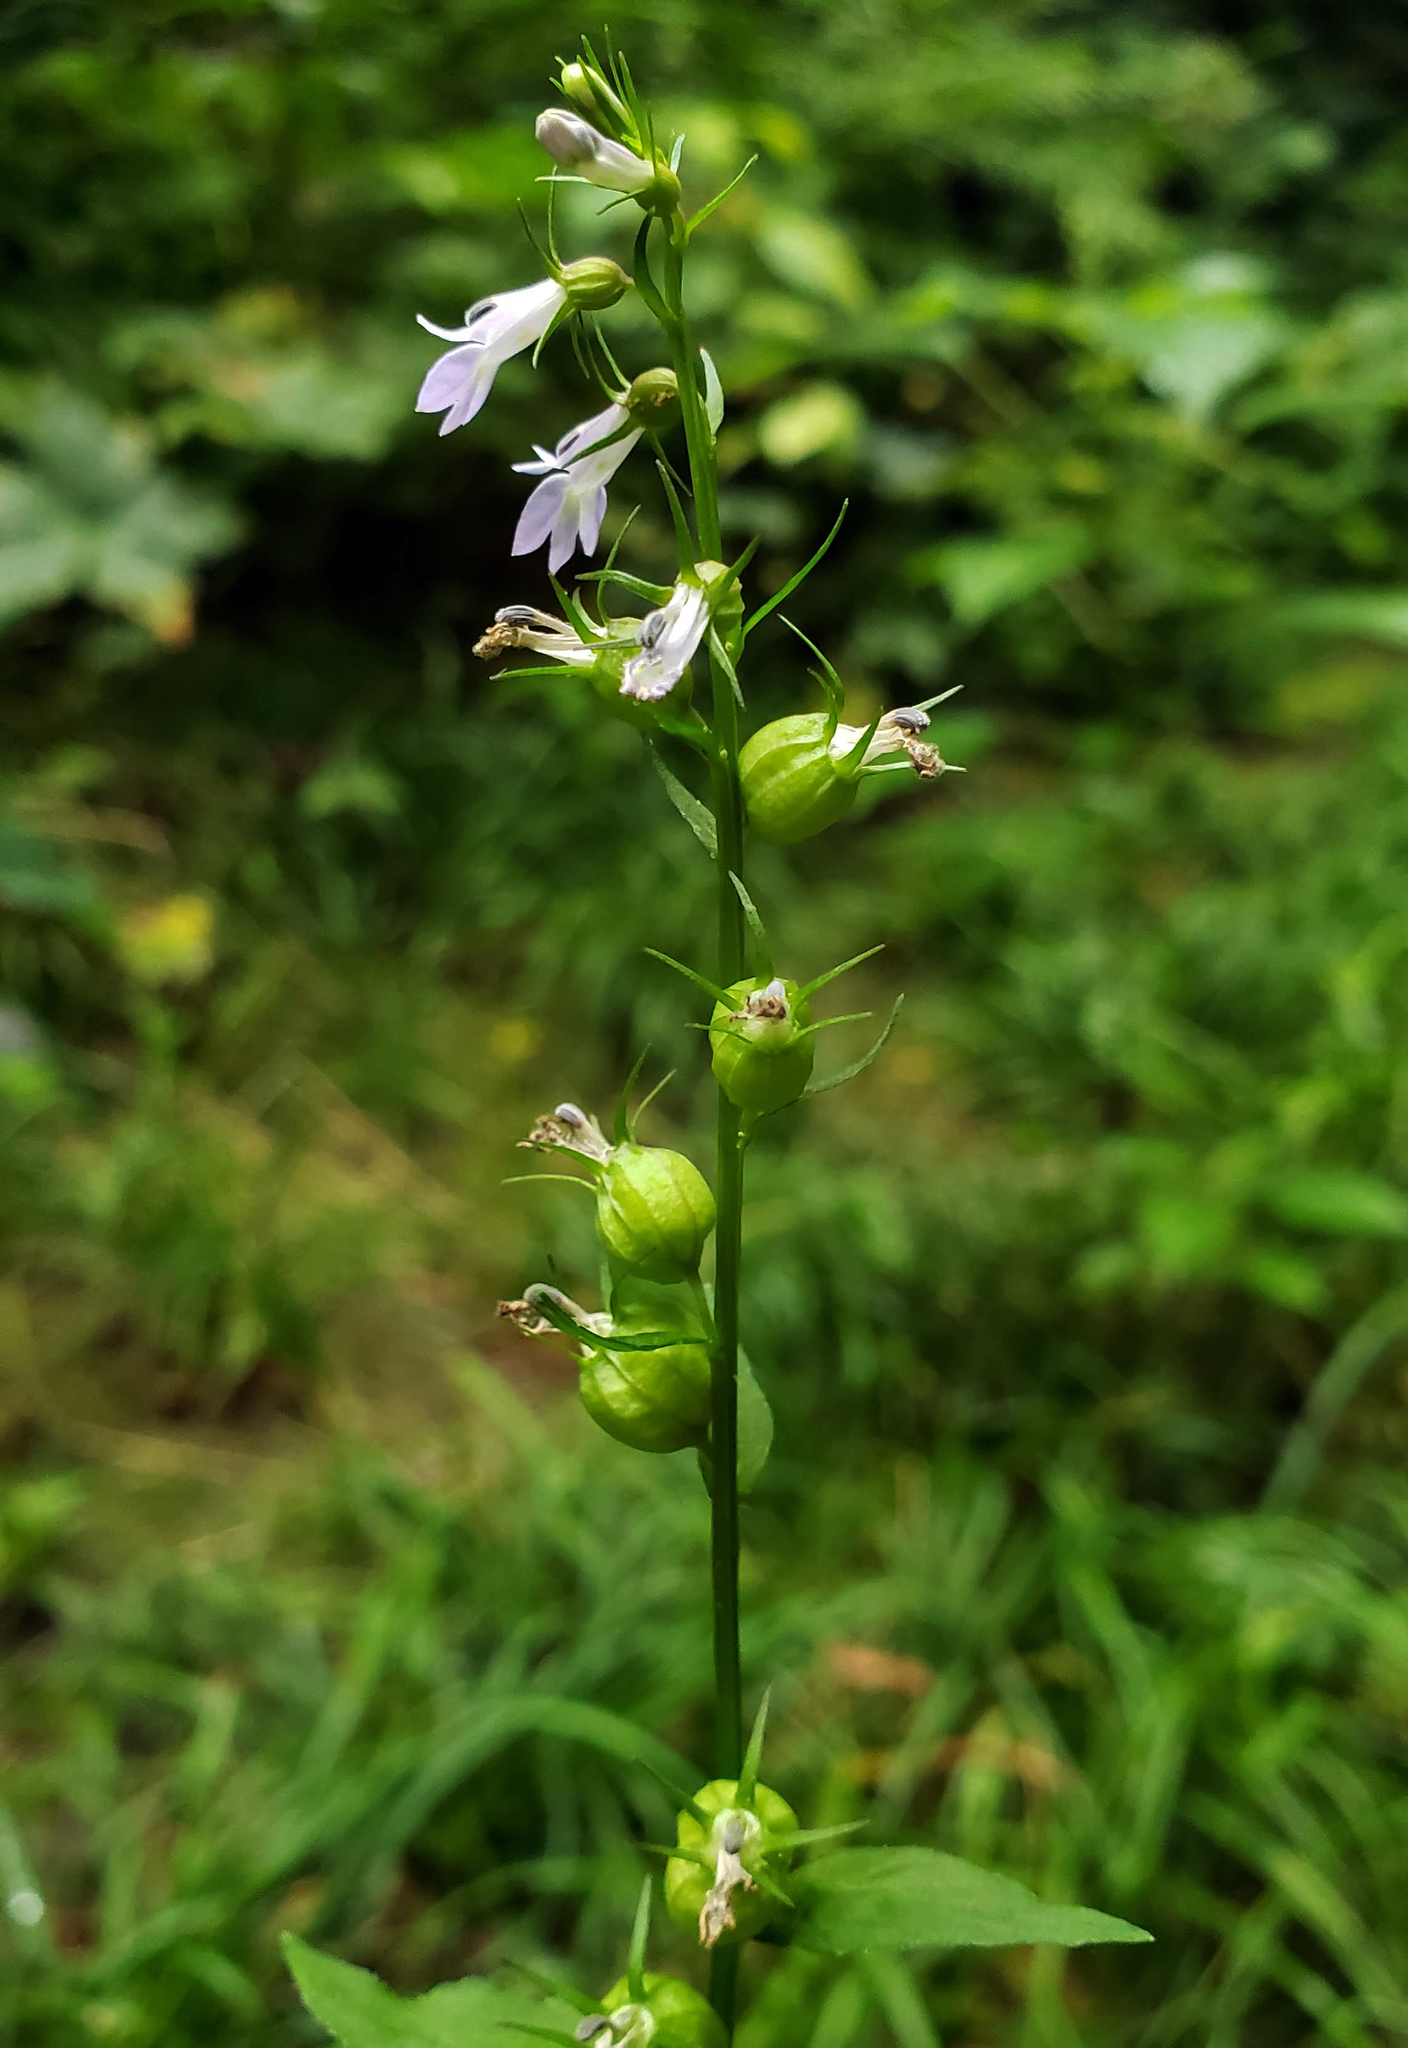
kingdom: Plantae
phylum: Tracheophyta
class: Magnoliopsida
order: Asterales
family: Campanulaceae
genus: Lobelia
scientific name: Lobelia inflata
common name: Indian tobacco
